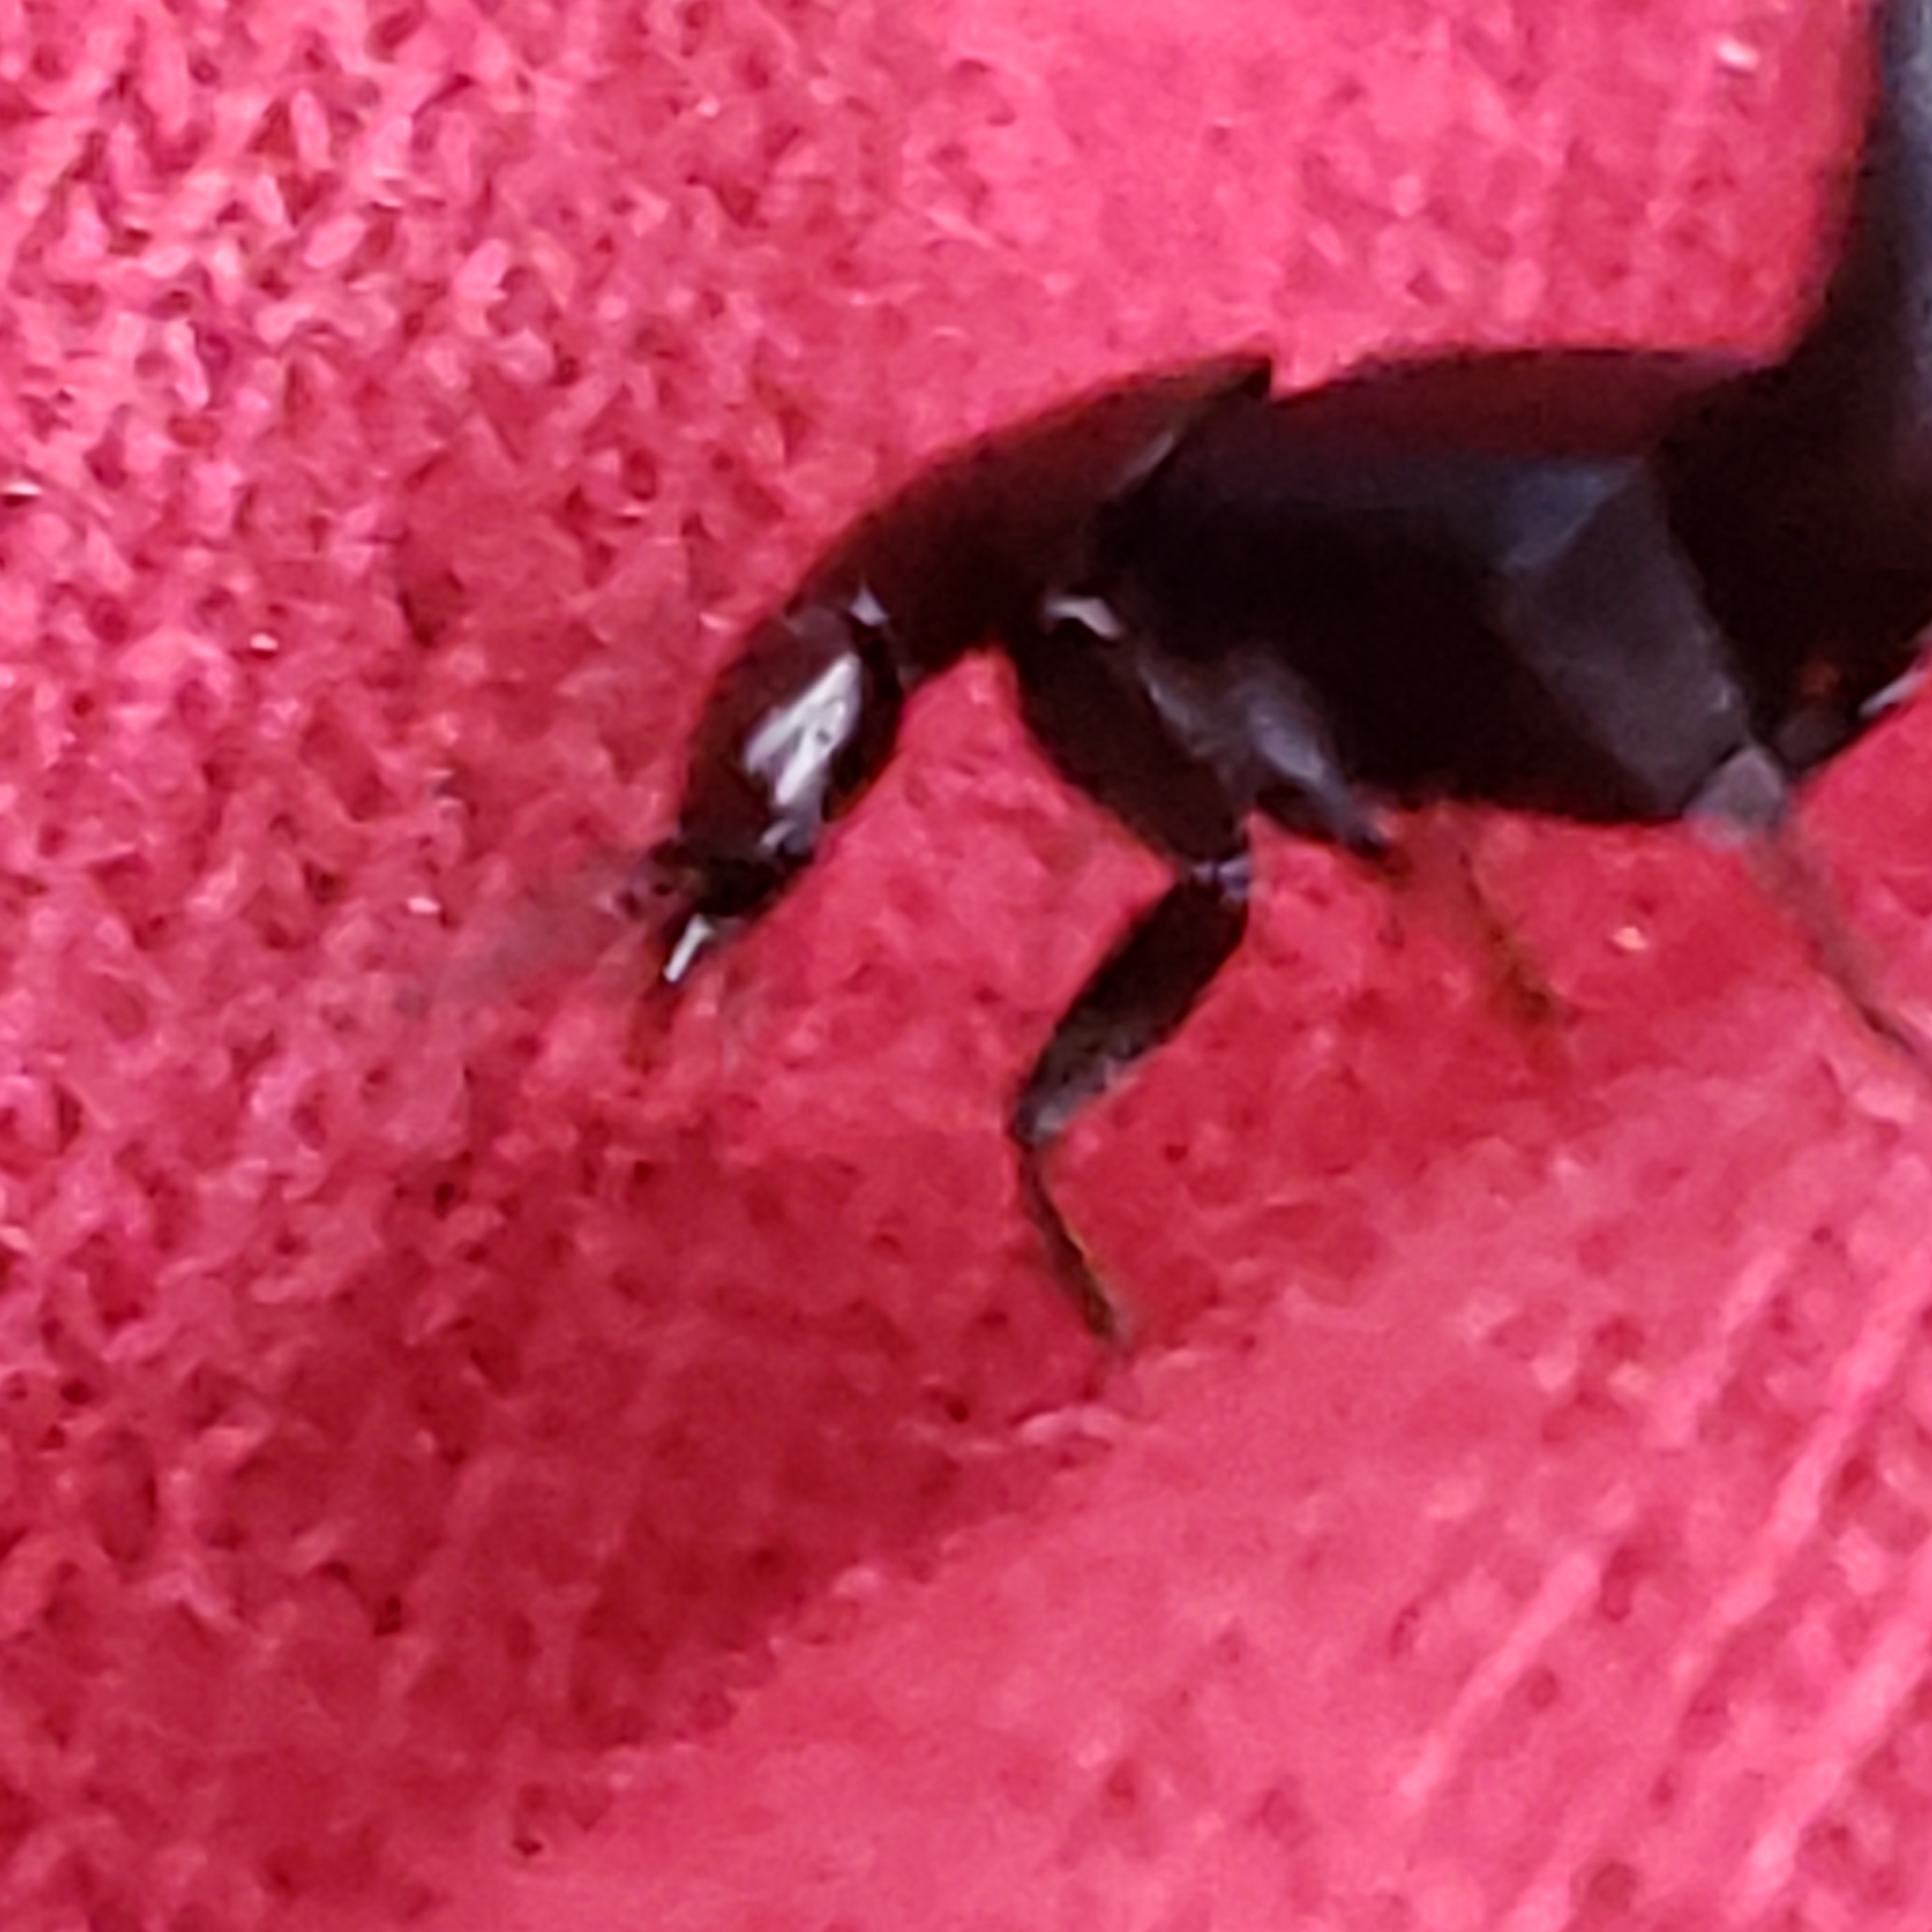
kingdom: Animalia
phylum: Arthropoda
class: Insecta
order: Coleoptera
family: Staphylinidae
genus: Philonthus
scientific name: Philonthus caeruleipennis
